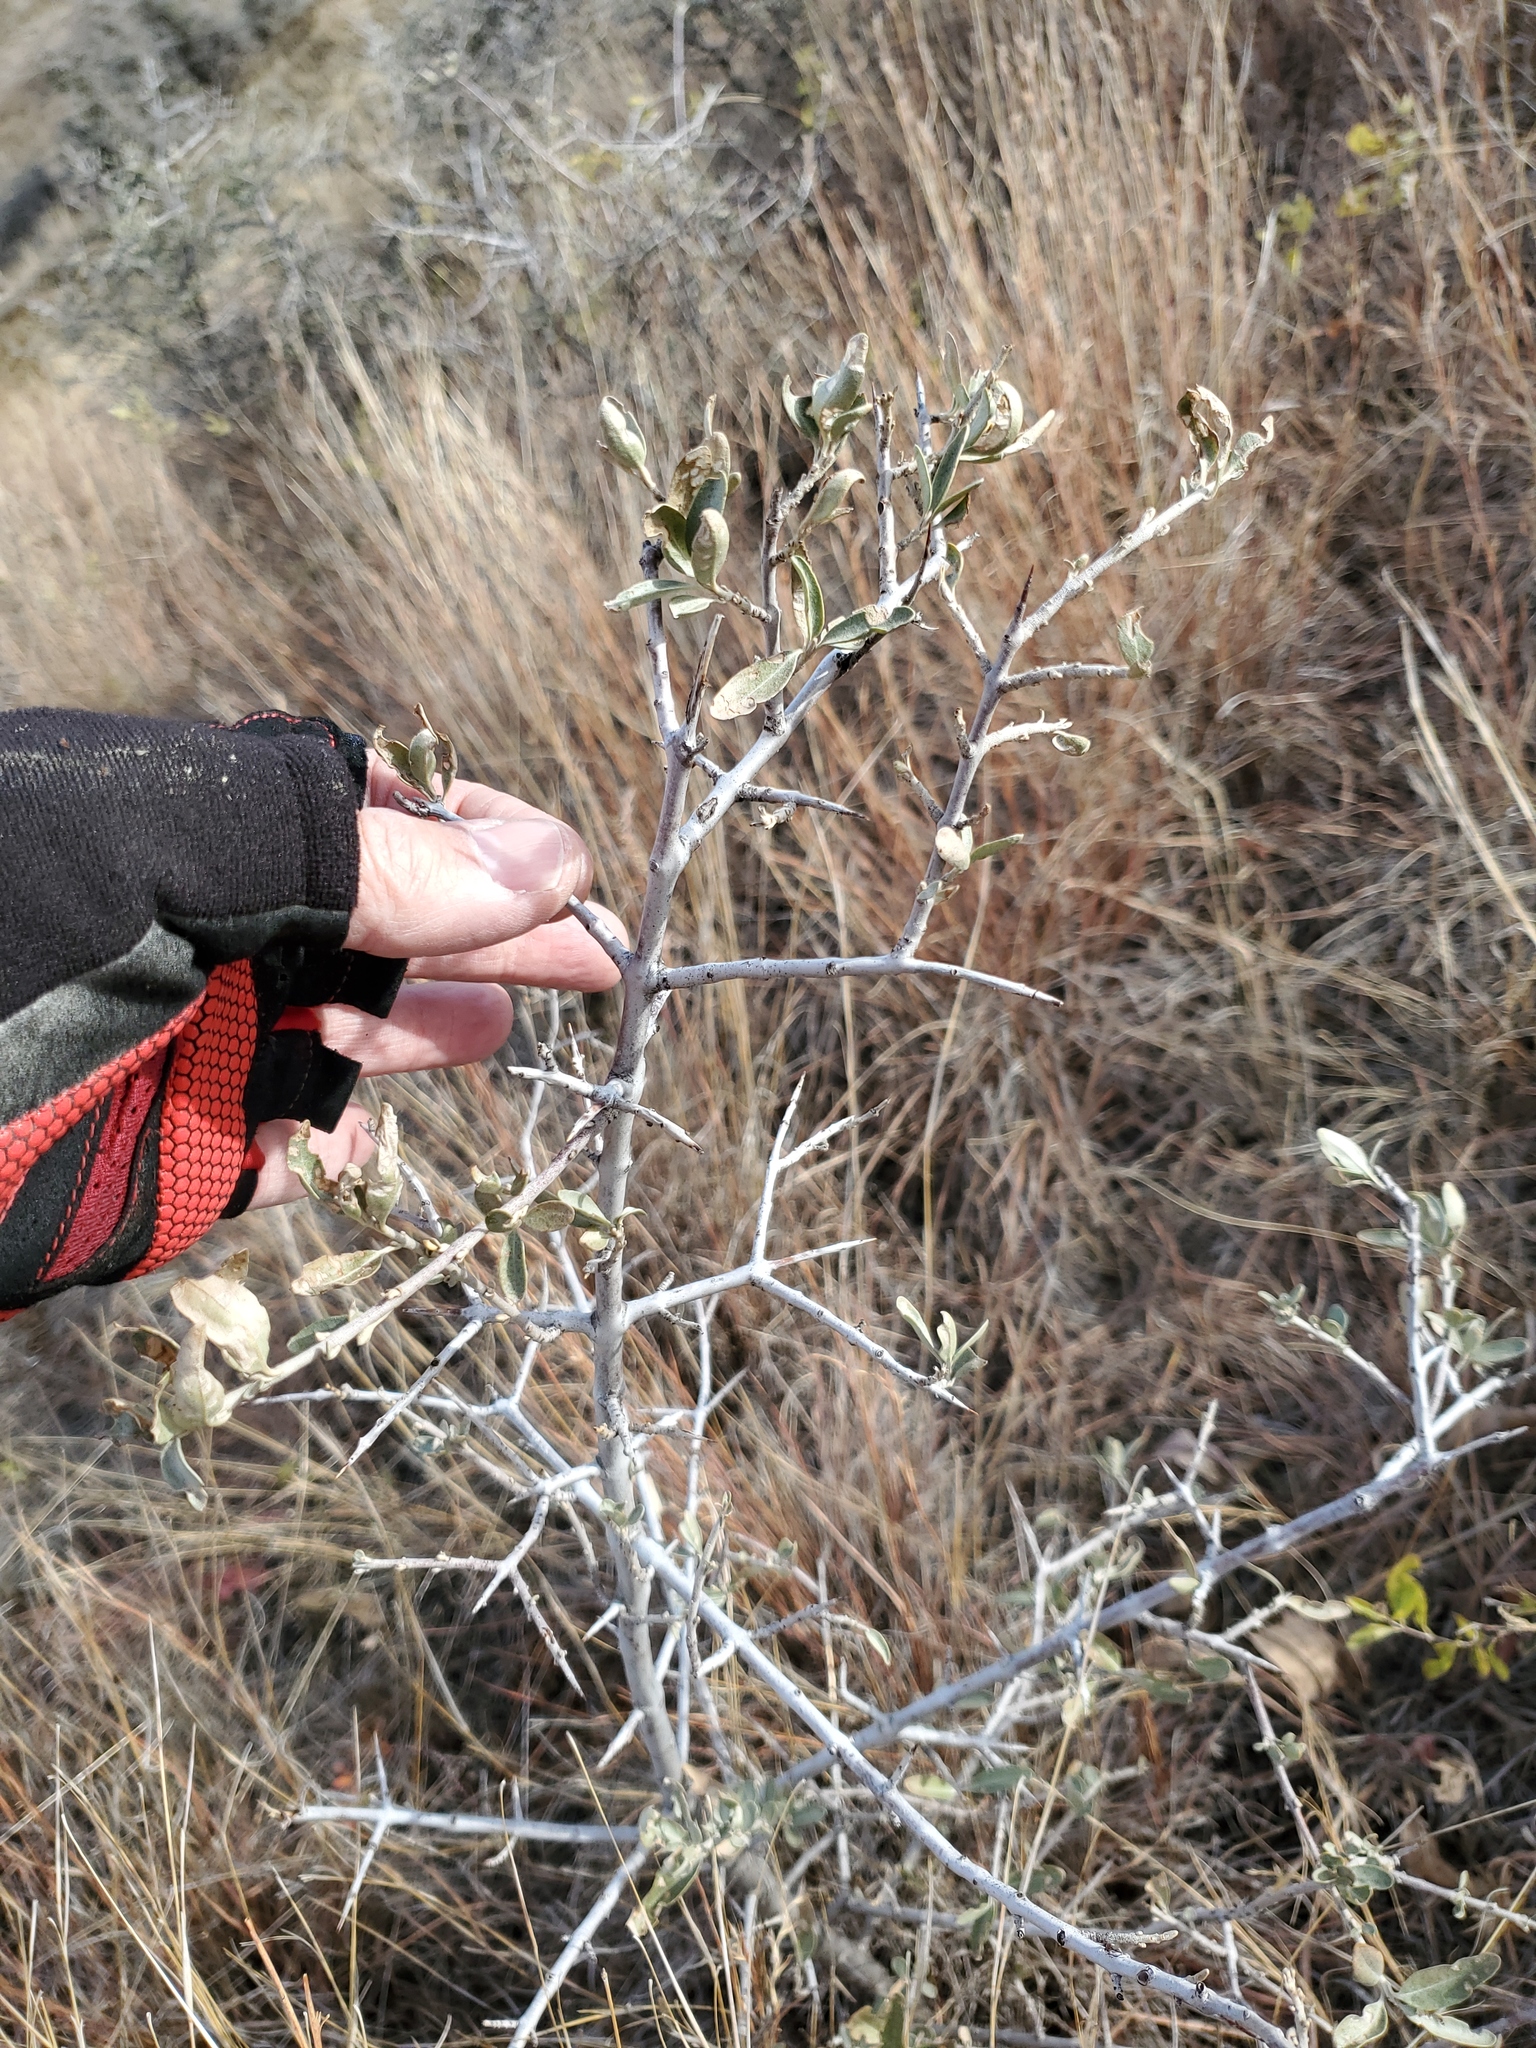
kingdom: Plantae
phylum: Tracheophyta
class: Magnoliopsida
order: Rosales
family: Elaeagnaceae
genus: Shepherdia
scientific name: Shepherdia argentea
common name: Silver buffaloberry
